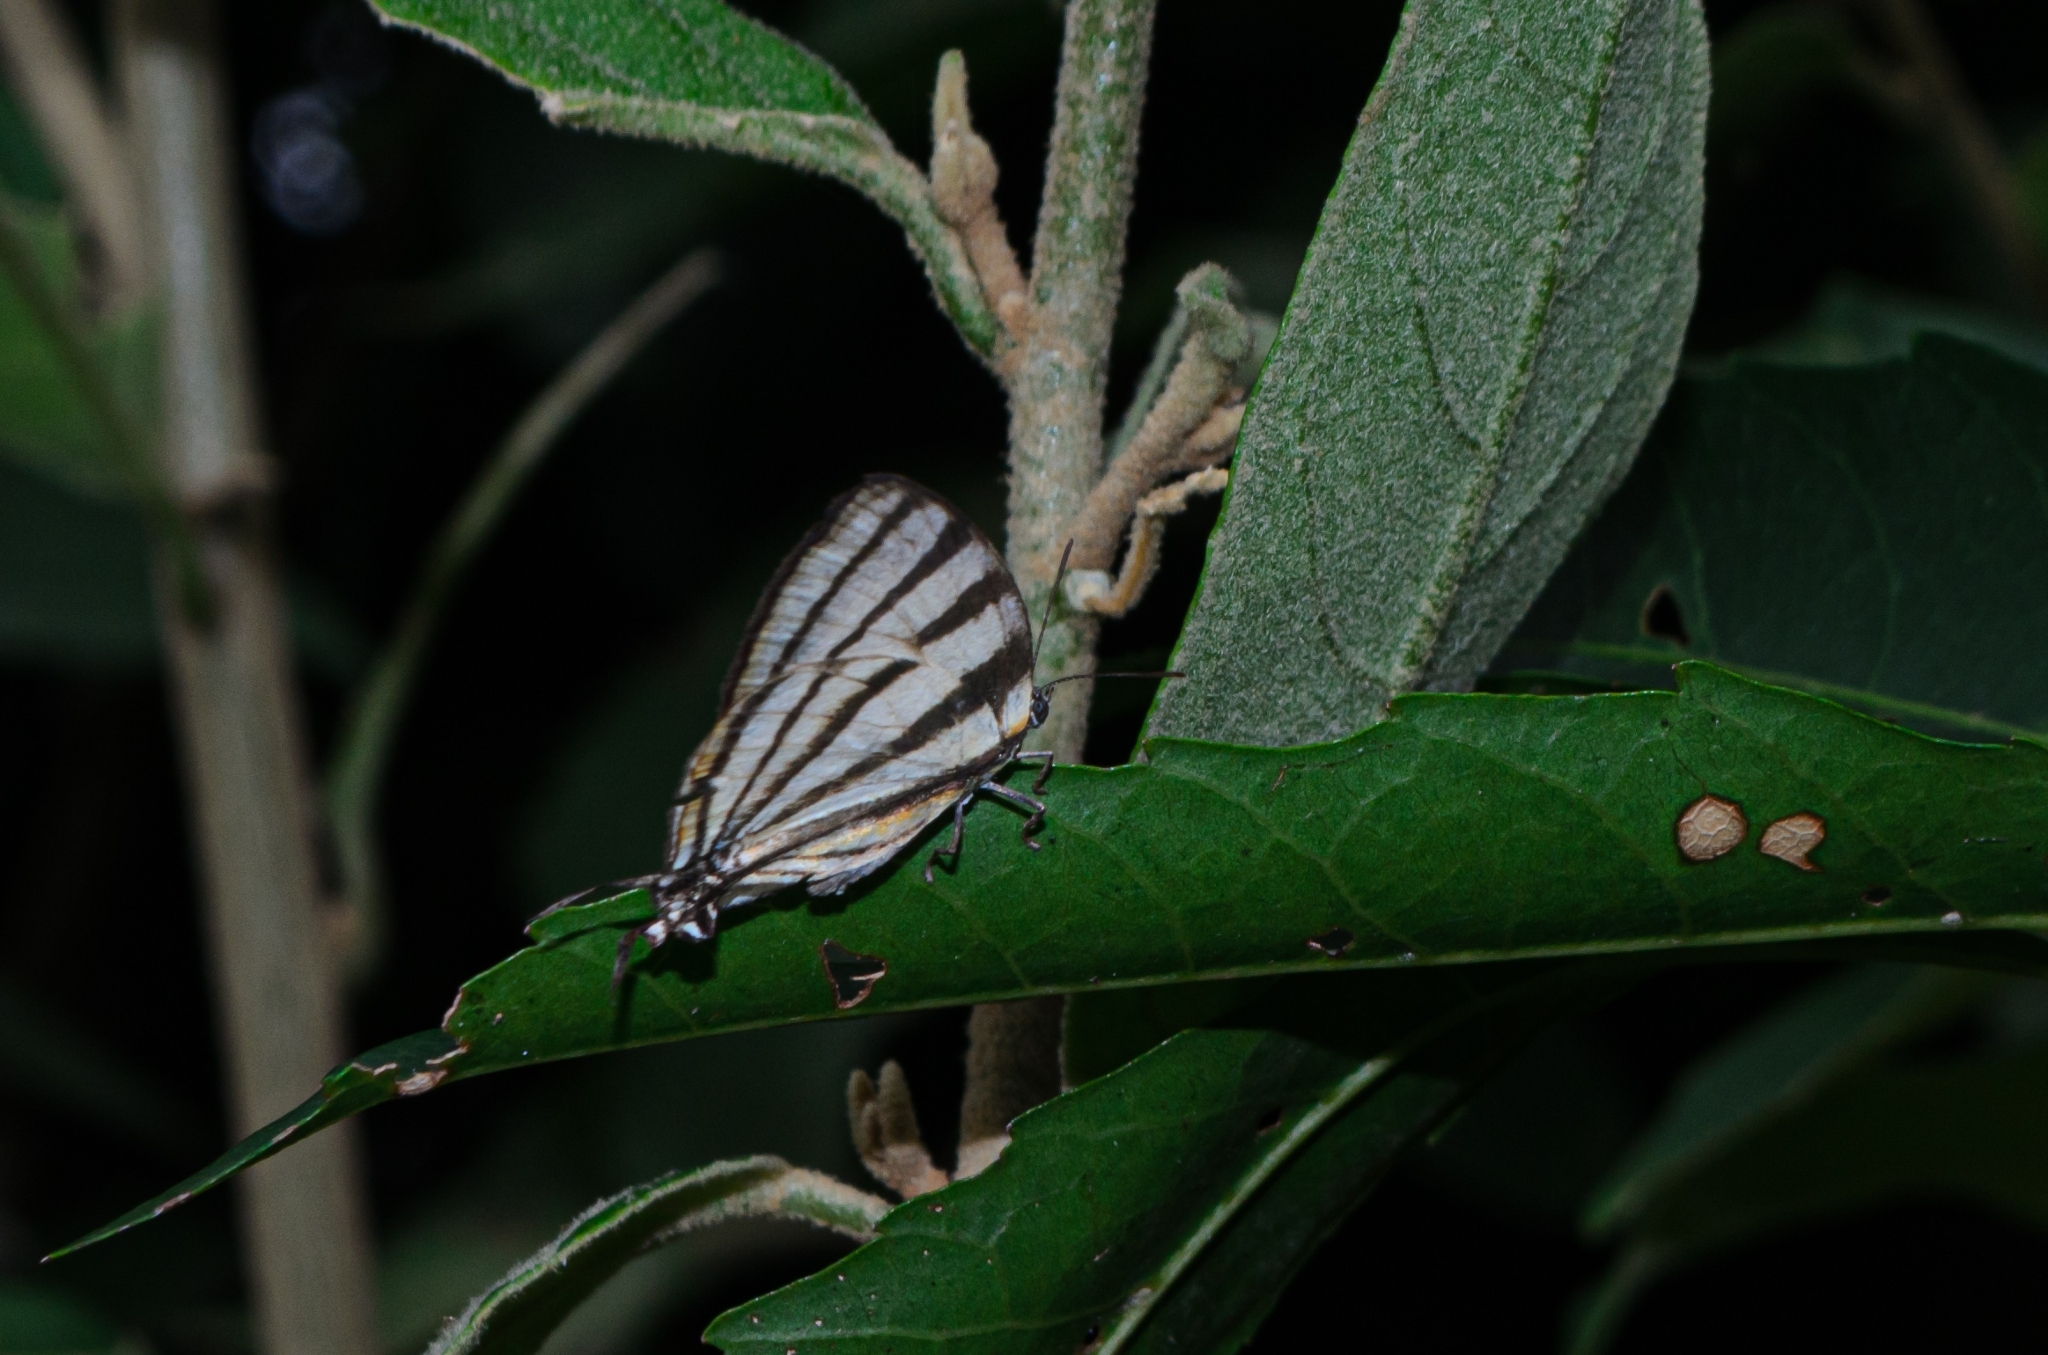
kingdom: Animalia
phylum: Arthropoda
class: Insecta
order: Lepidoptera
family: Lycaenidae
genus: Arawacus
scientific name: Arawacus separata
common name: Separated stripestreak
